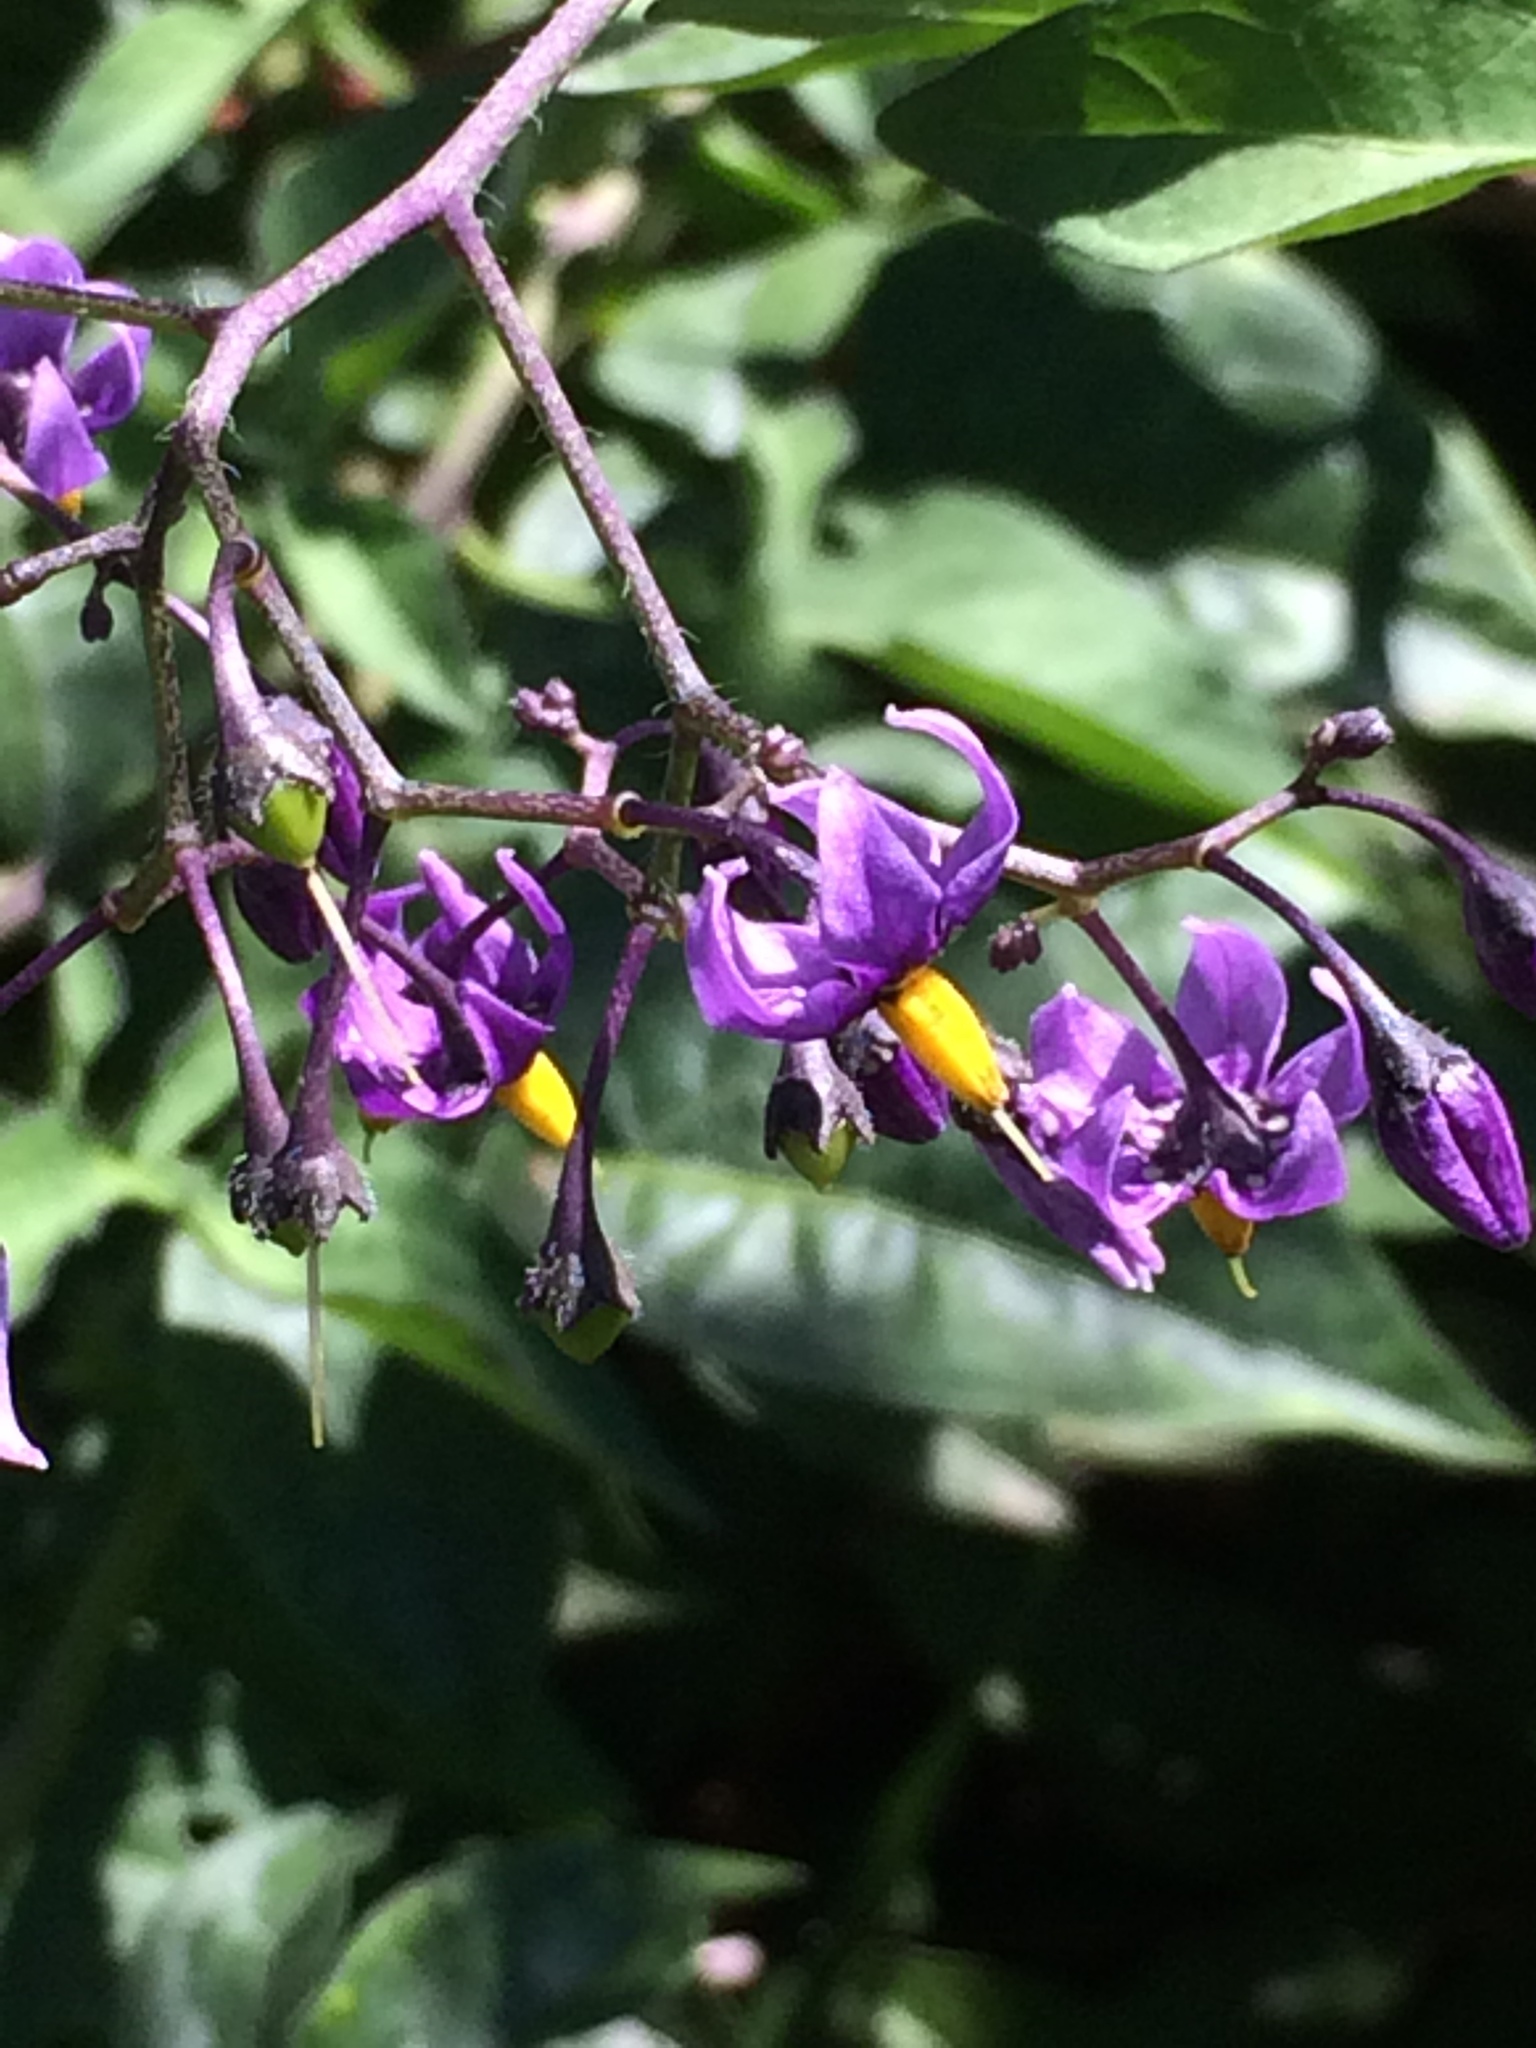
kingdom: Plantae
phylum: Tracheophyta
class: Magnoliopsida
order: Solanales
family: Solanaceae
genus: Solanum
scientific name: Solanum dulcamara
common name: Climbing nightshade
